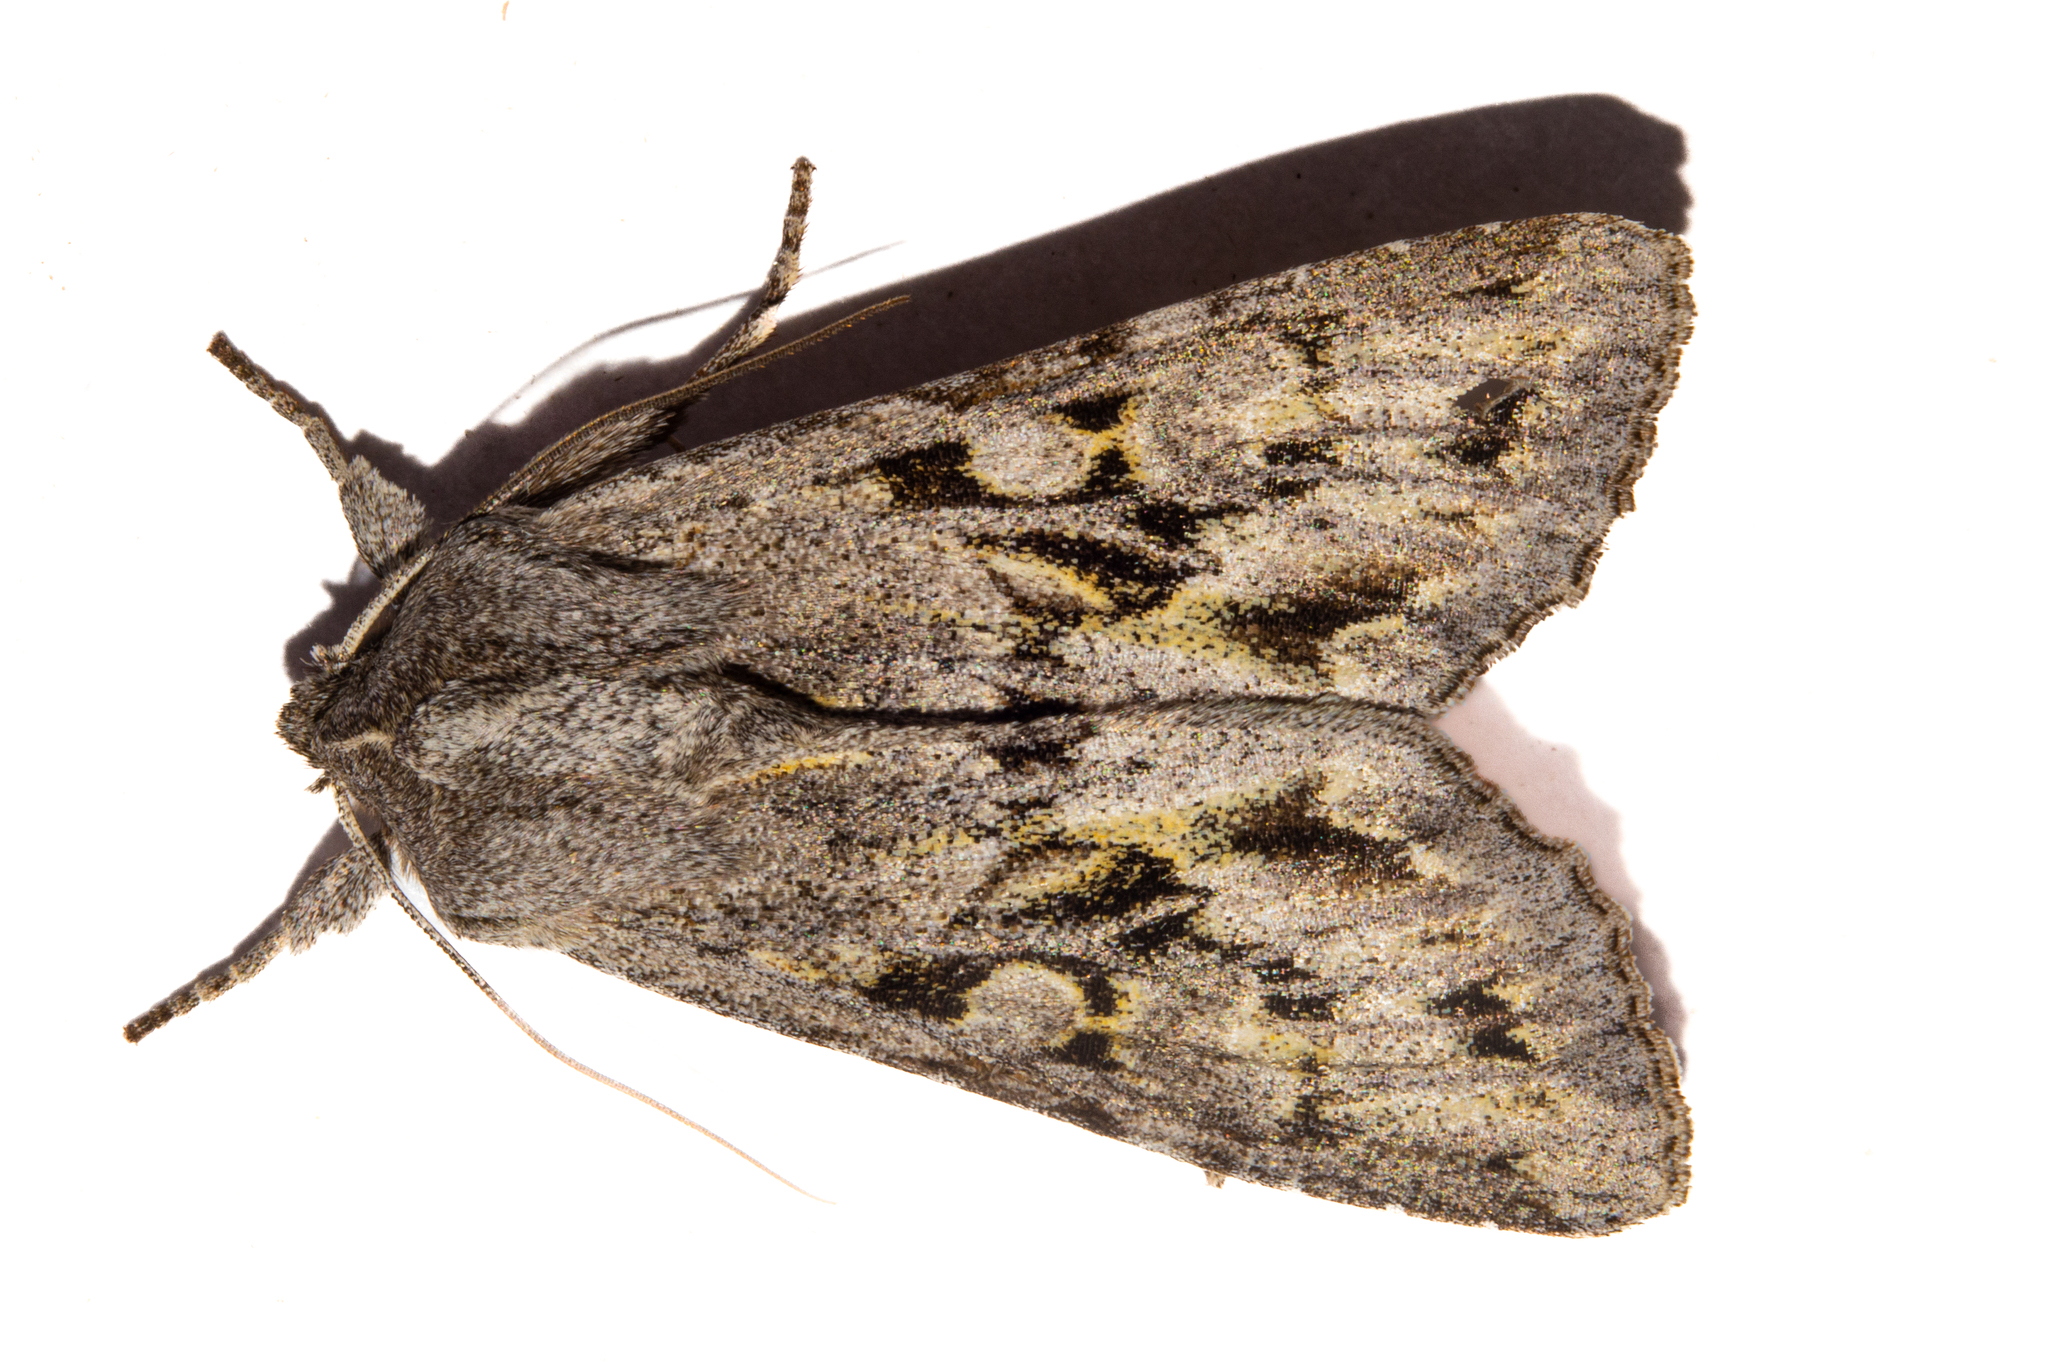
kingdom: Animalia
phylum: Arthropoda
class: Insecta
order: Lepidoptera
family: Noctuidae
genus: Ichneutica
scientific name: Ichneutica
